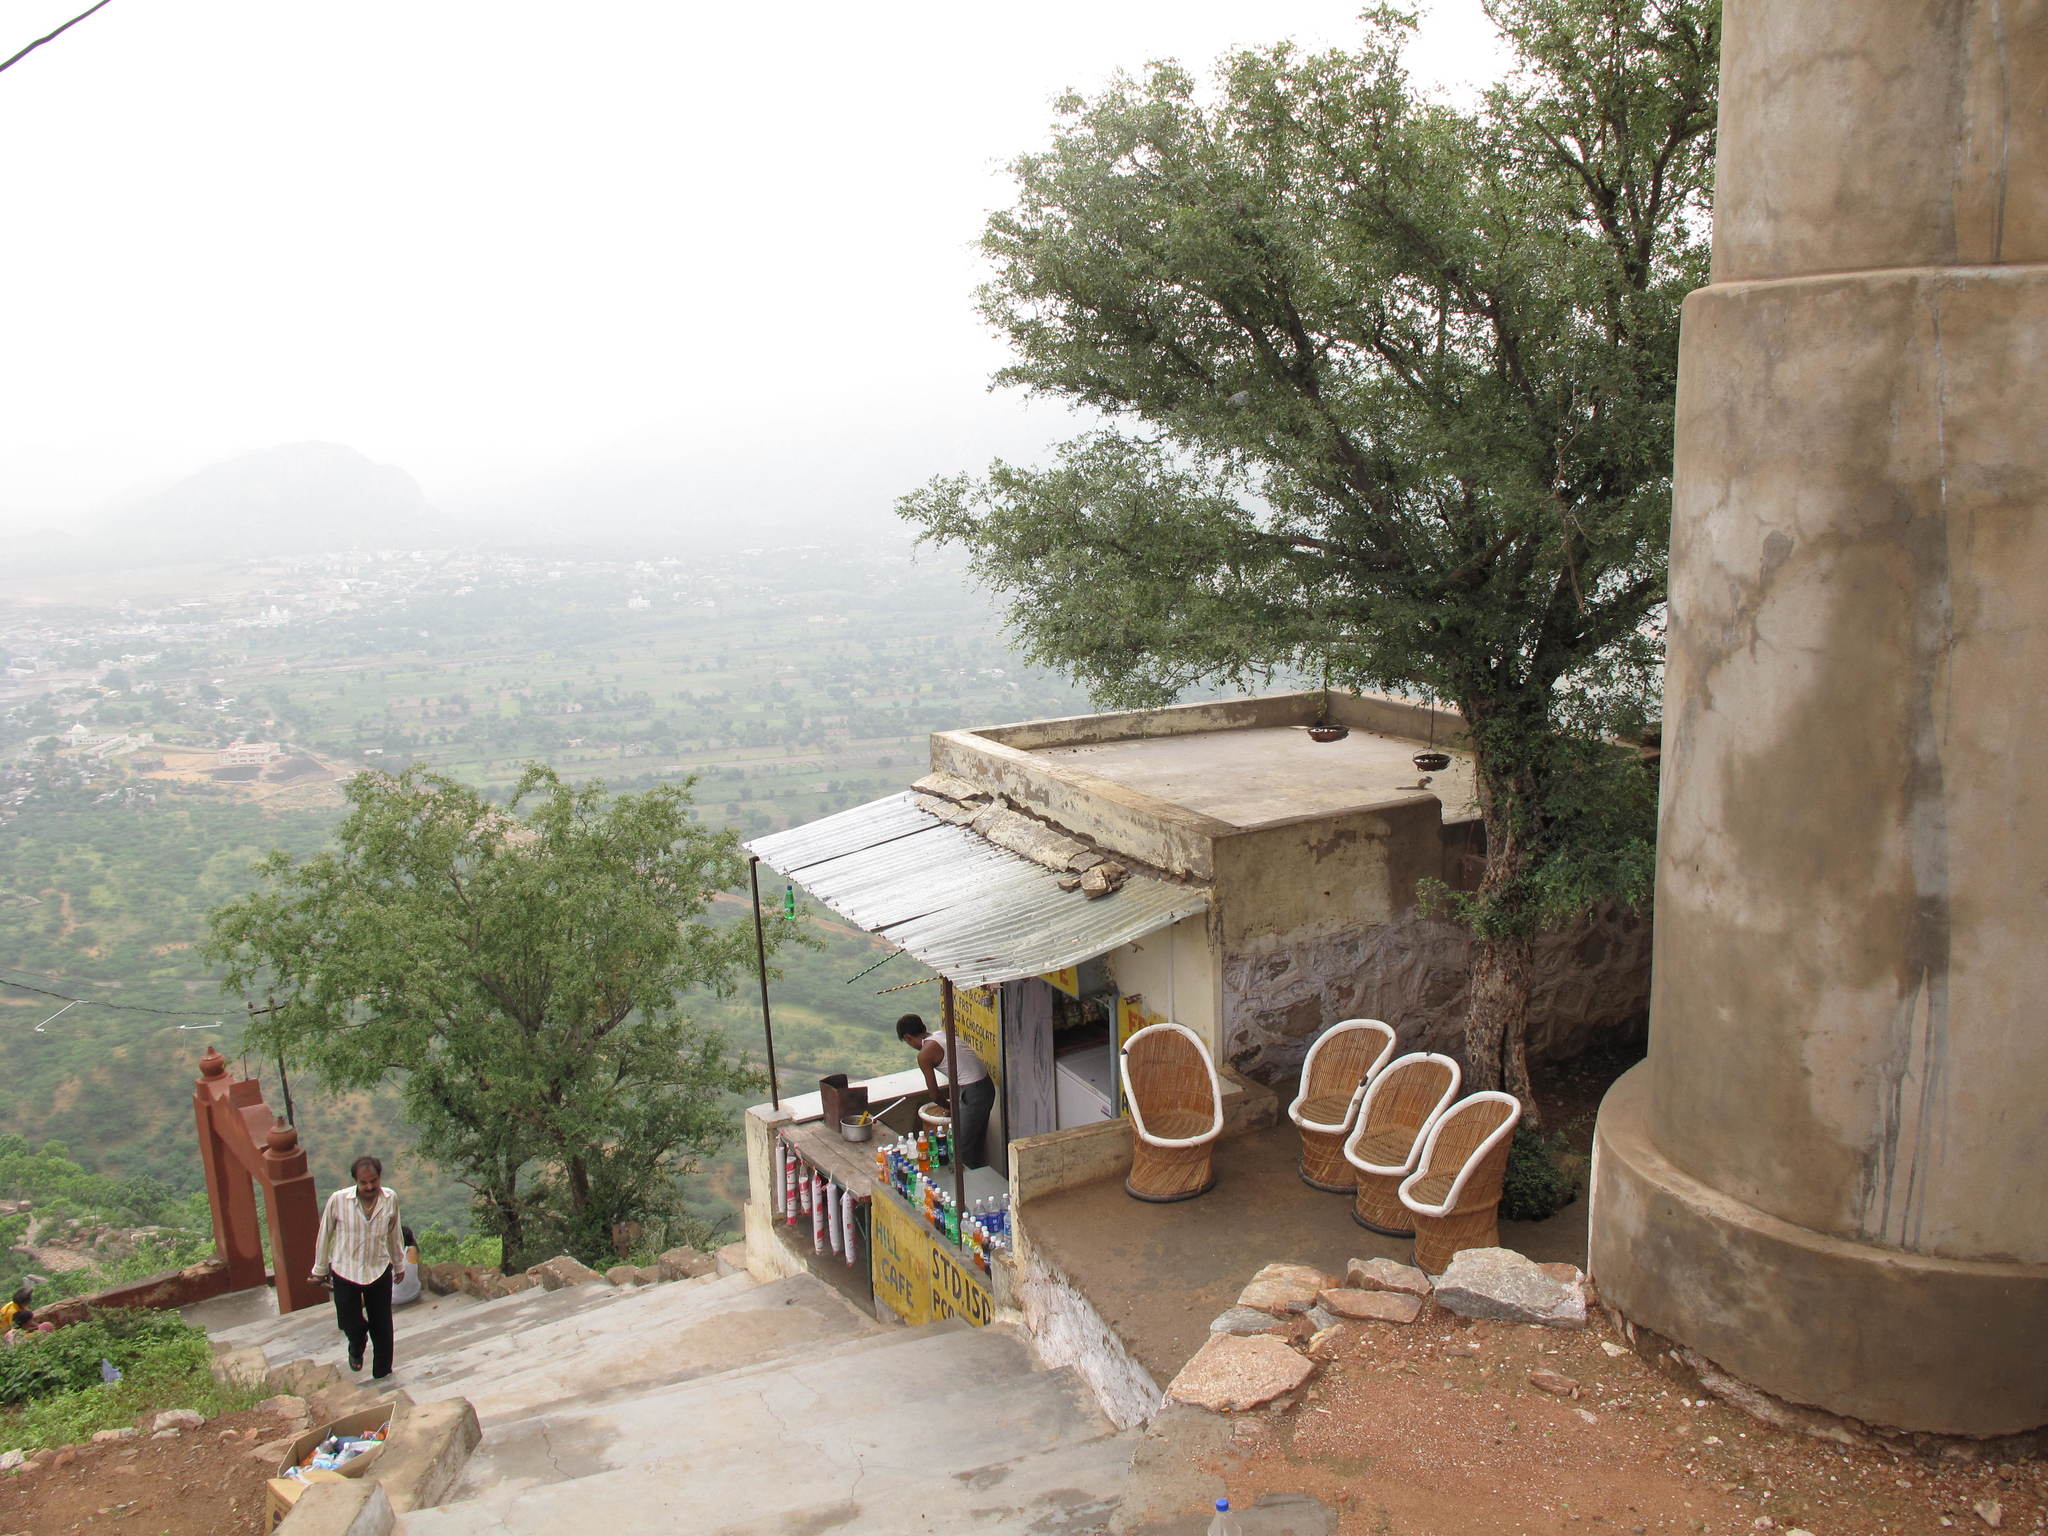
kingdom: Plantae
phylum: Tracheophyta
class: Magnoliopsida
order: Myrtales
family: Combretaceae
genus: Terminalia
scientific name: Terminalia pendula
